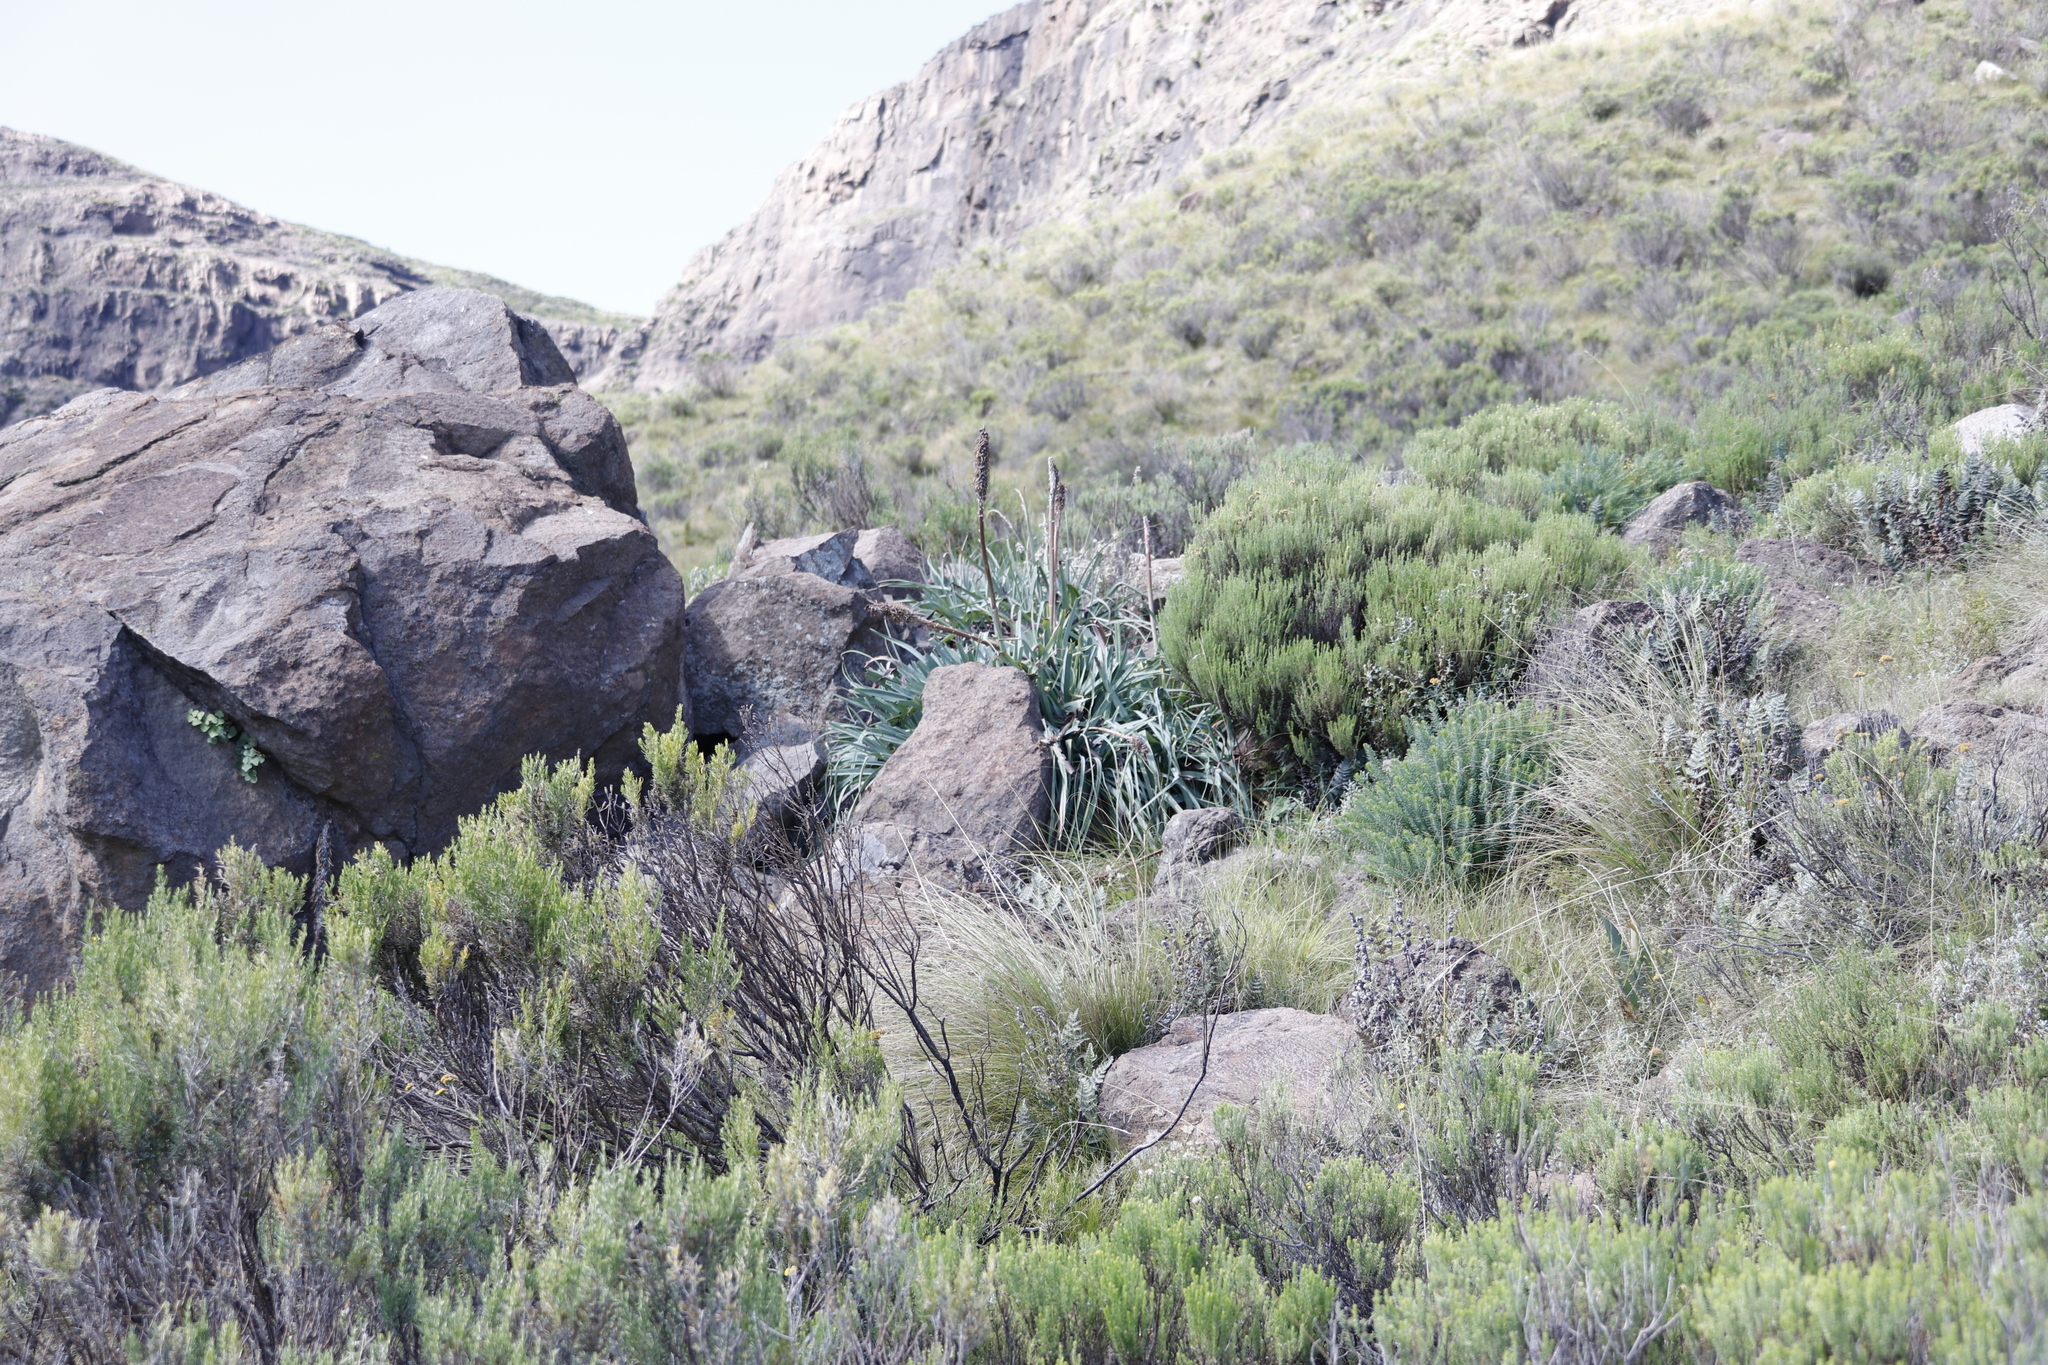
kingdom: Plantae
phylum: Tracheophyta
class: Liliopsida
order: Asparagales
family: Asphodelaceae
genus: Kniphofia
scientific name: Kniphofia caulescens
